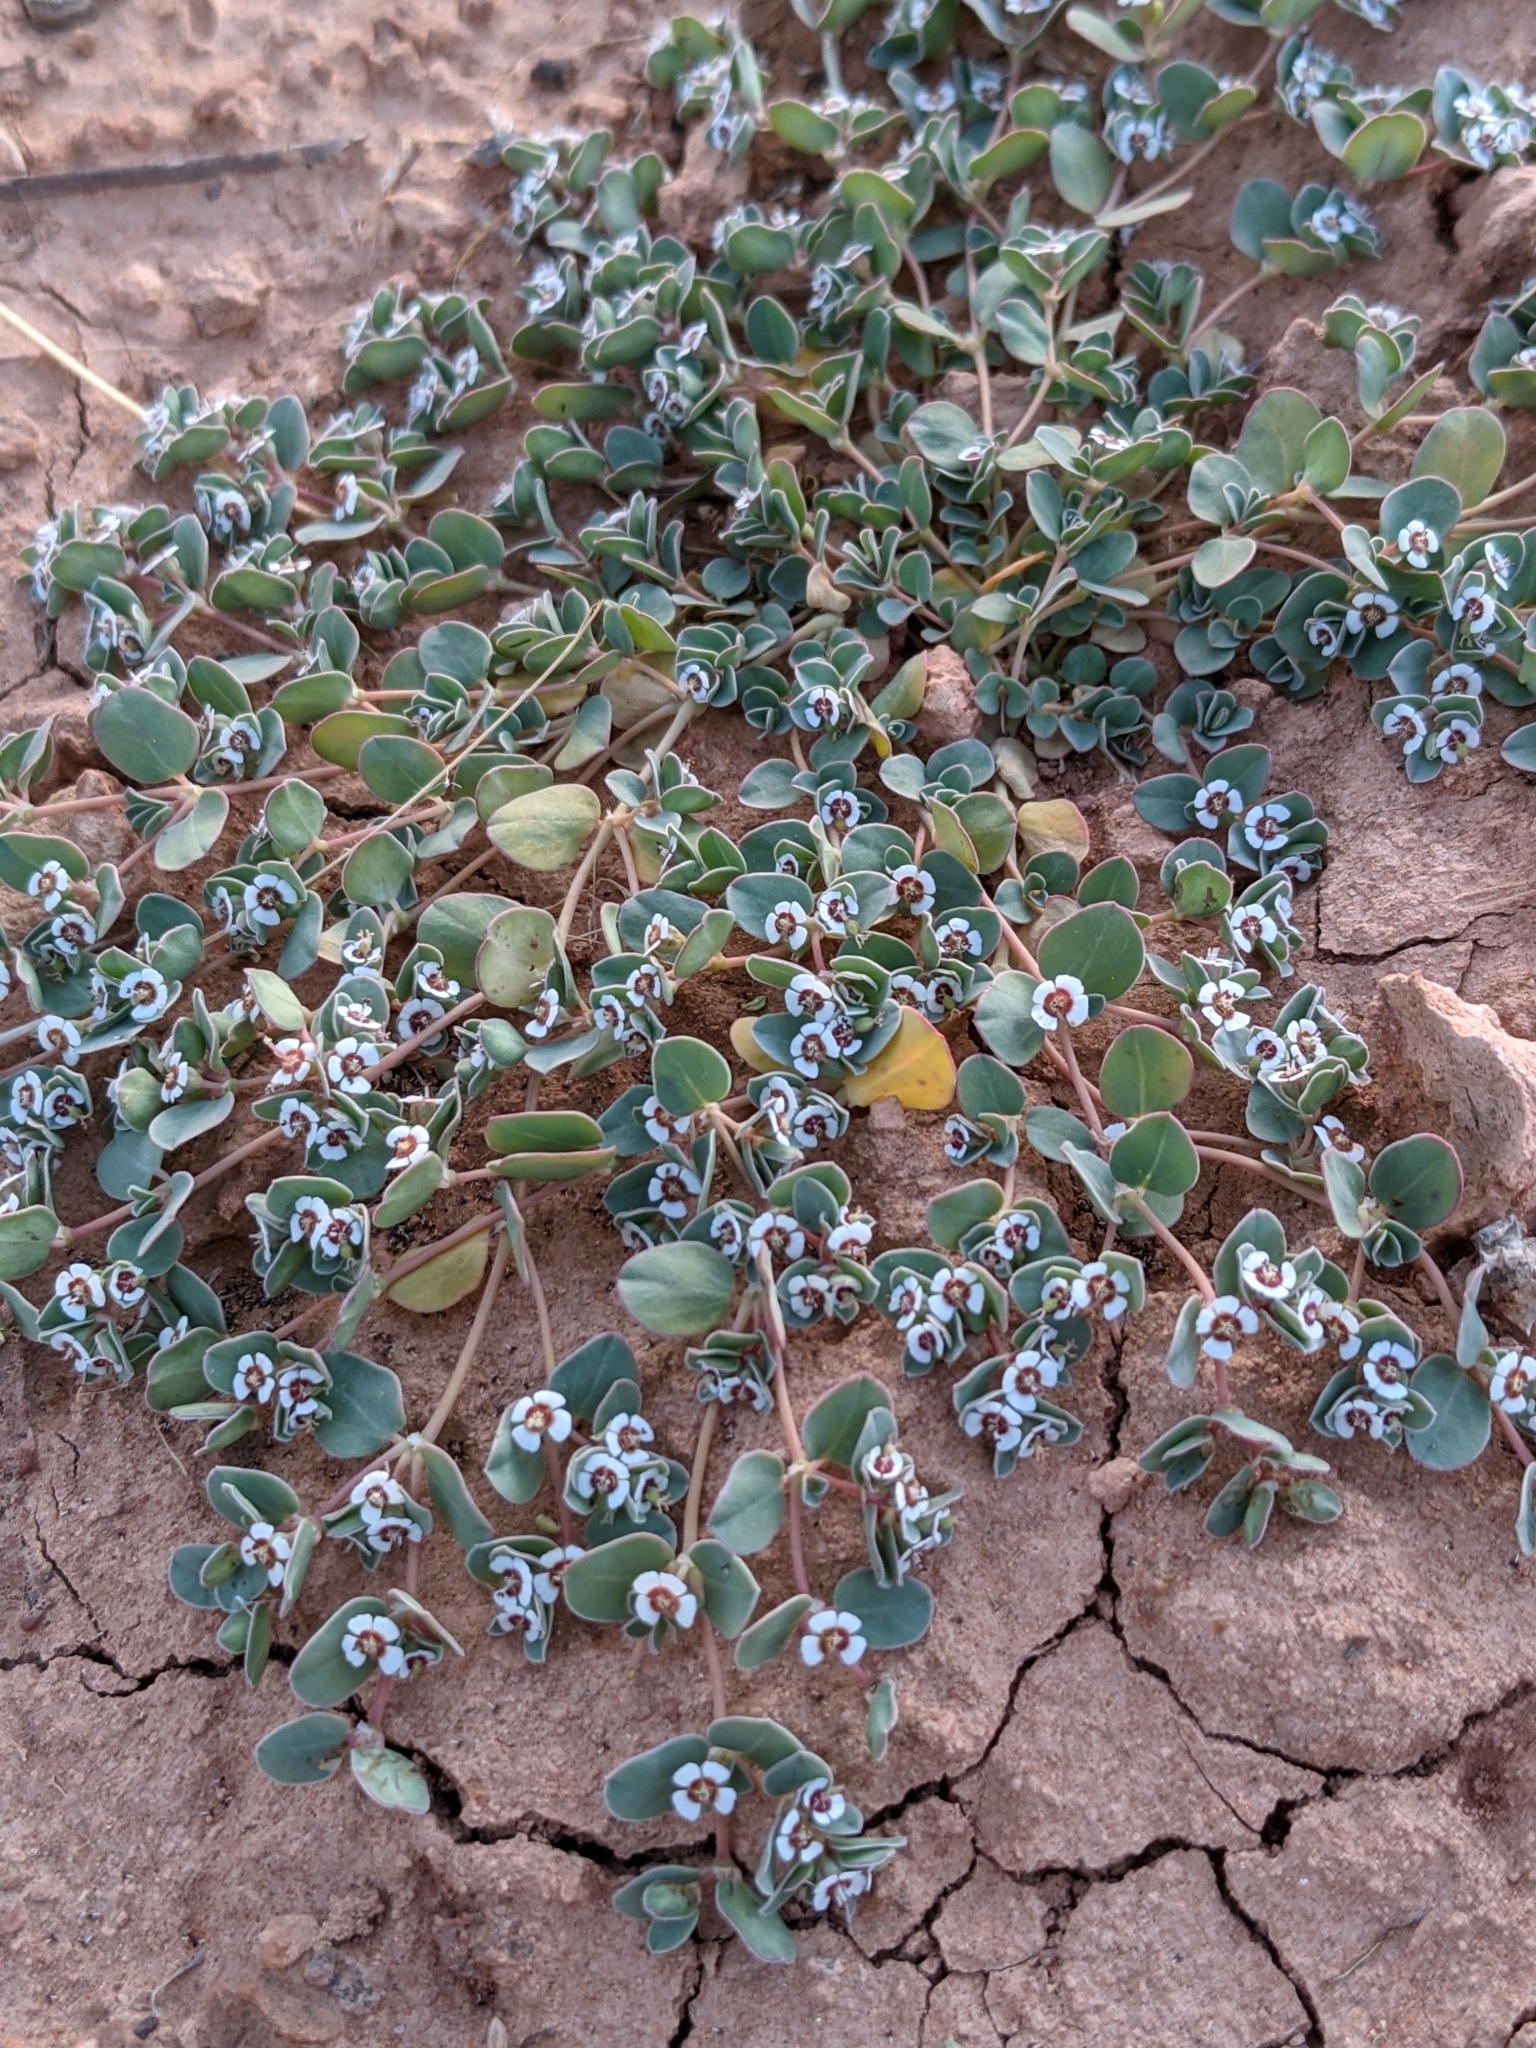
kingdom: Plantae
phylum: Tracheophyta
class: Magnoliopsida
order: Malpighiales
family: Euphorbiaceae
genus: Euphorbia
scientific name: Euphorbia albomarginata
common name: Whitemargin sandmat
